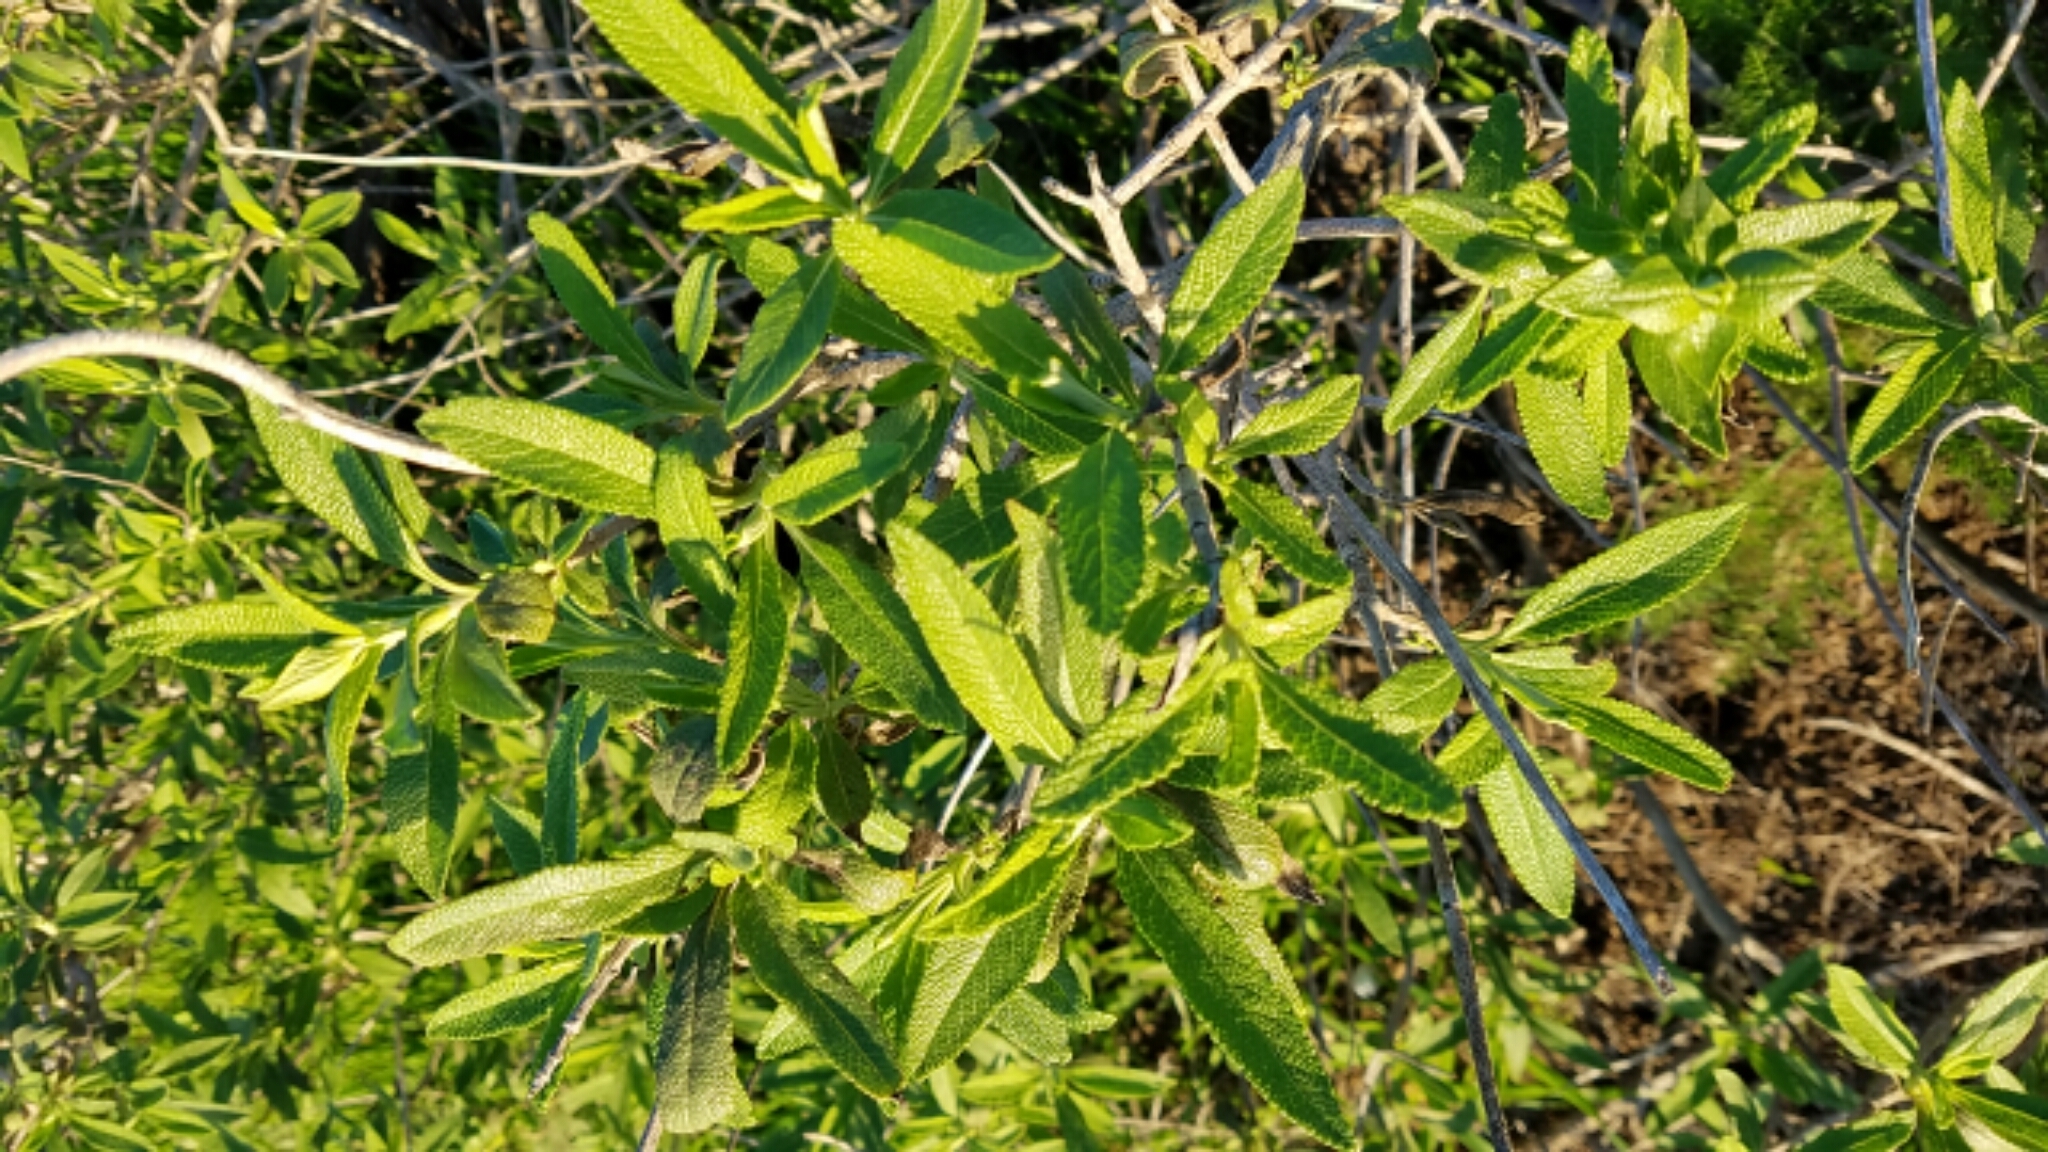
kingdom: Plantae
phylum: Tracheophyta
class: Magnoliopsida
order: Lamiales
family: Lamiaceae
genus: Salvia
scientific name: Salvia mellifera
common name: Black sage
